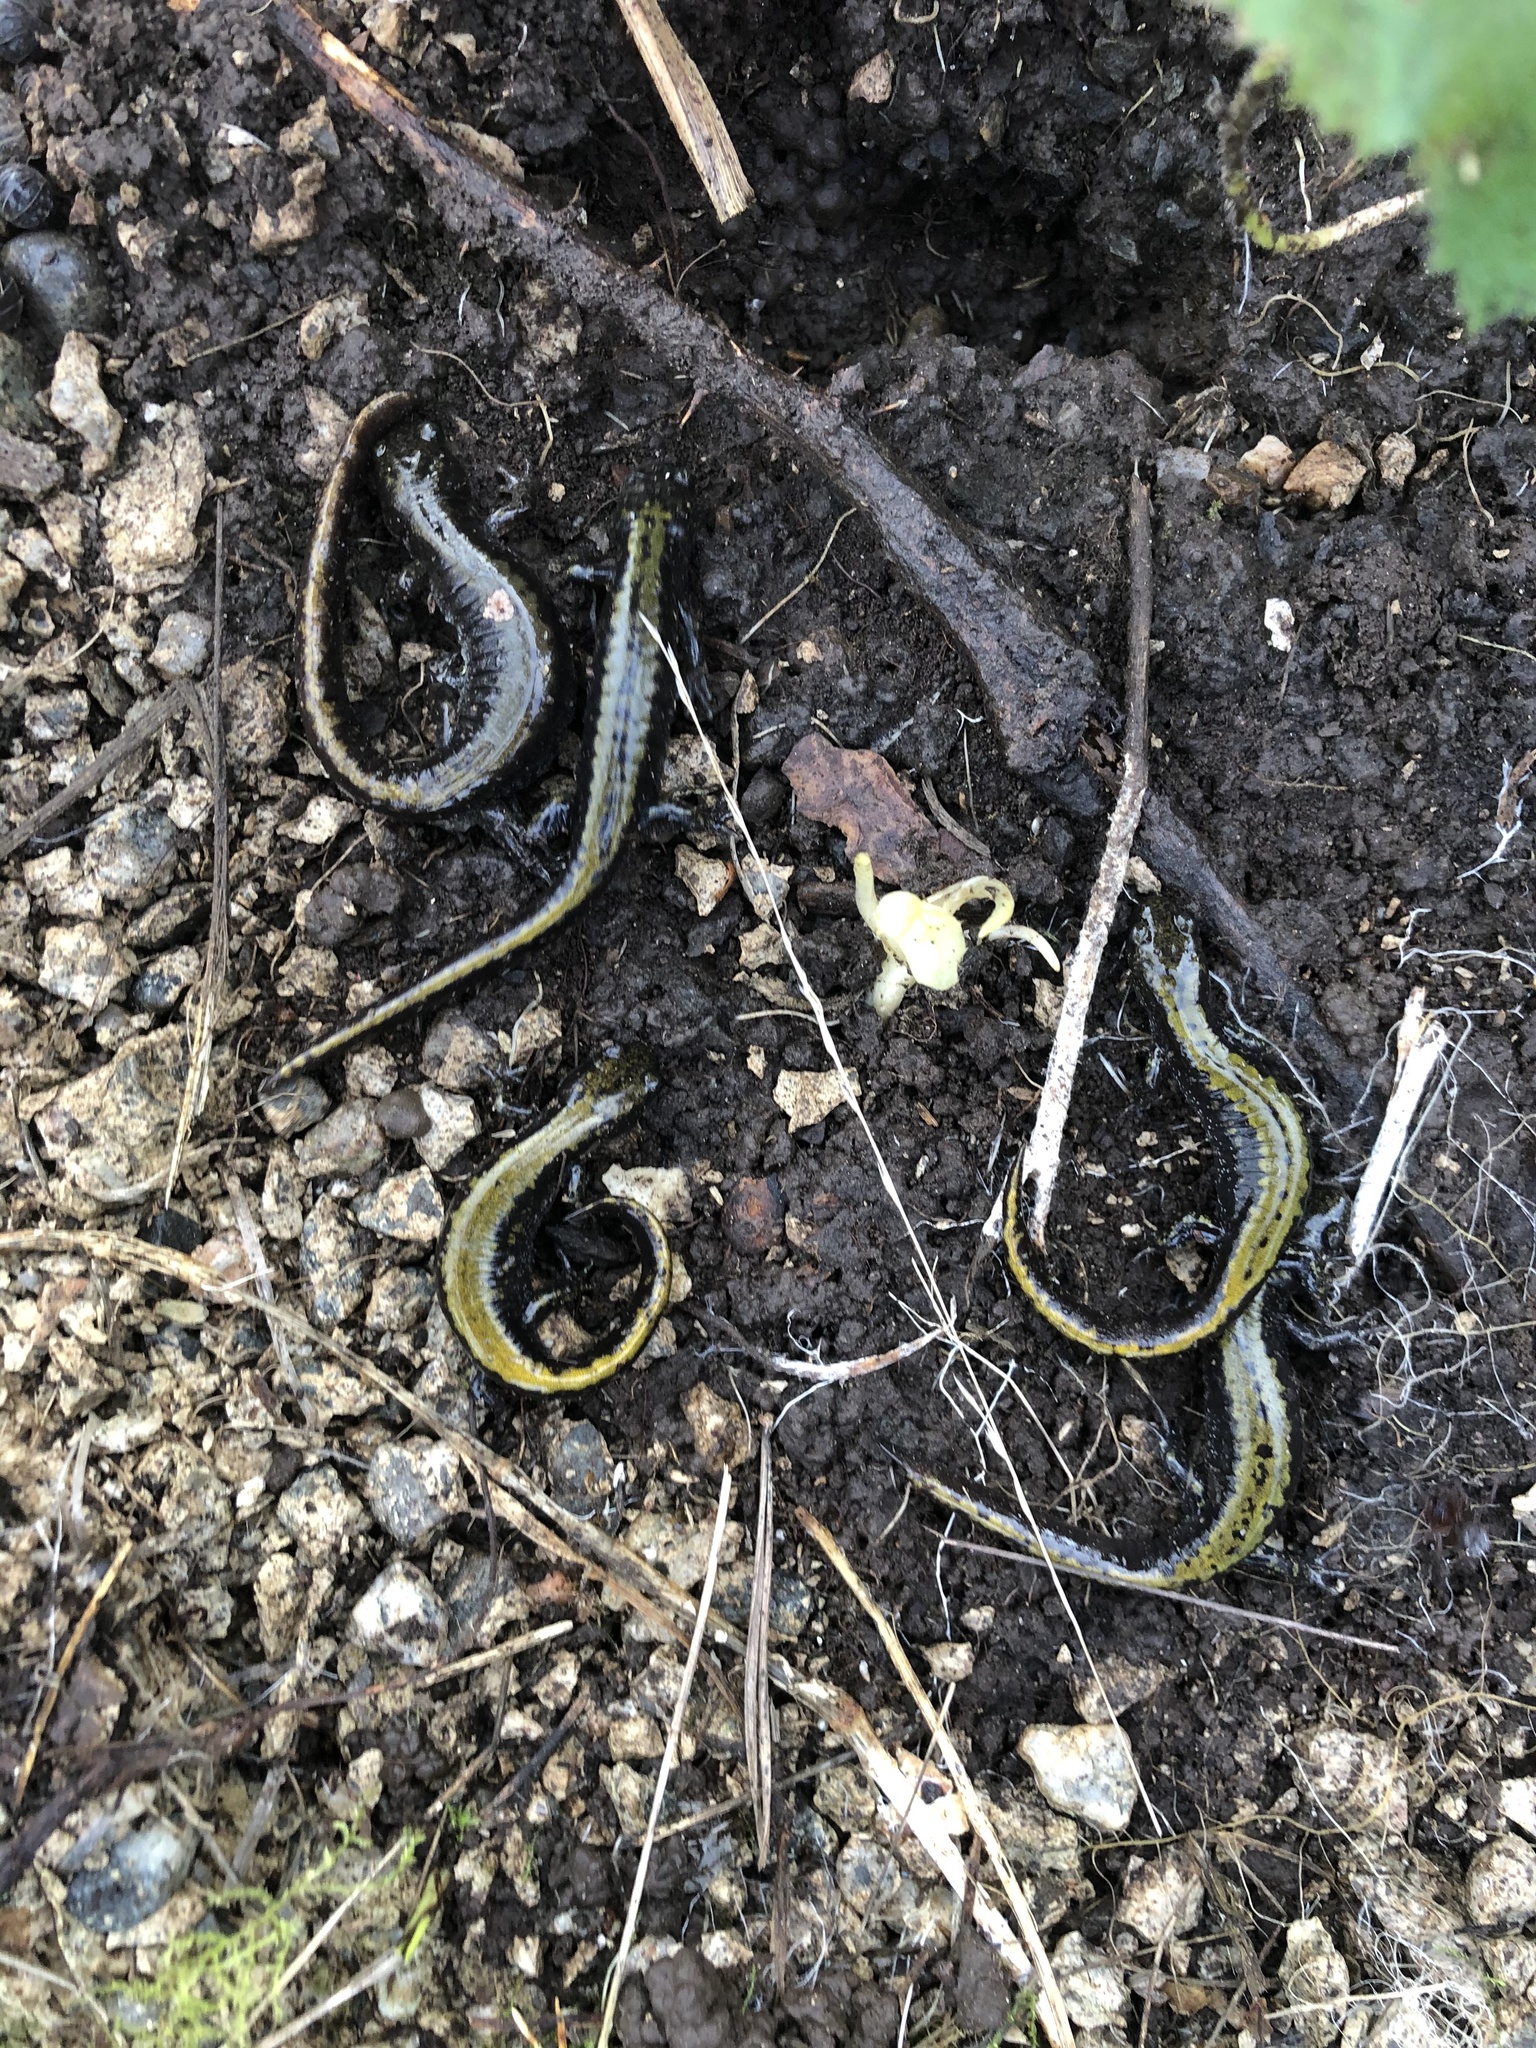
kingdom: Animalia
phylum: Chordata
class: Amphibia
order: Caudata
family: Ambystomatidae
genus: Ambystoma
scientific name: Ambystoma macrodactylum
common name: Long-toed salamander
